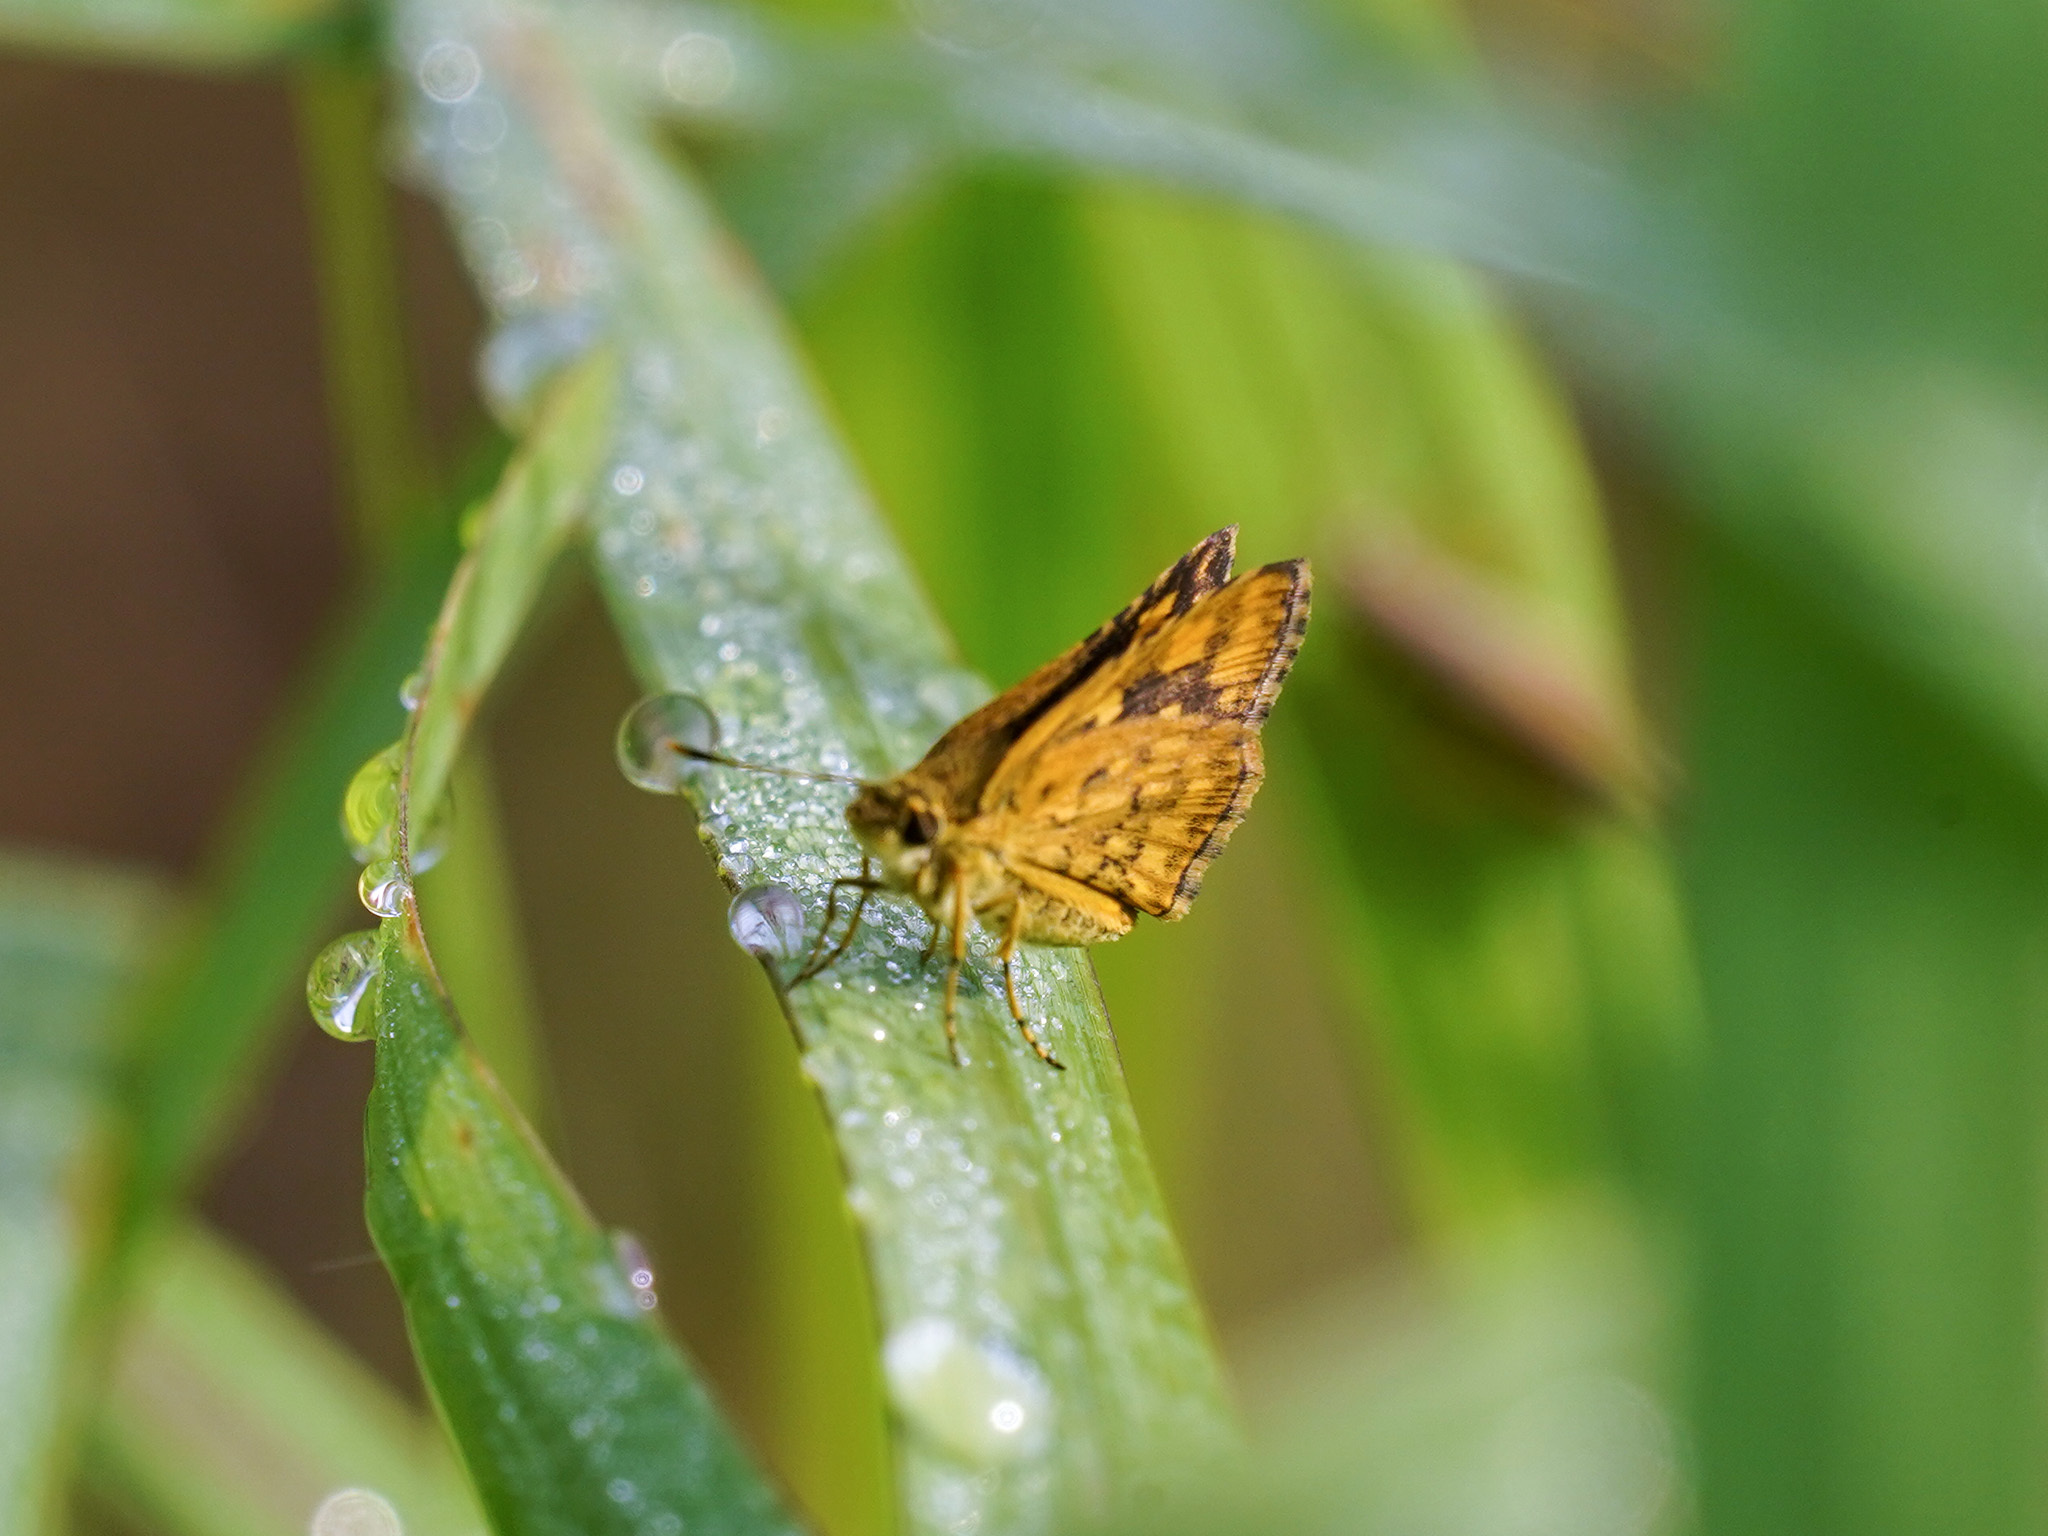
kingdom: Animalia
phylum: Arthropoda
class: Insecta
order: Lepidoptera
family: Hesperiidae
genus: Ampittia
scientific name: Ampittia dioscorides
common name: Common bush hopper
